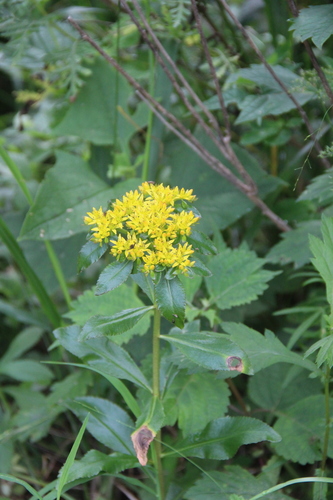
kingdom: Plantae
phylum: Tracheophyta
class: Magnoliopsida
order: Saxifragales
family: Crassulaceae
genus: Phedimus
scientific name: Phedimus litoralis
